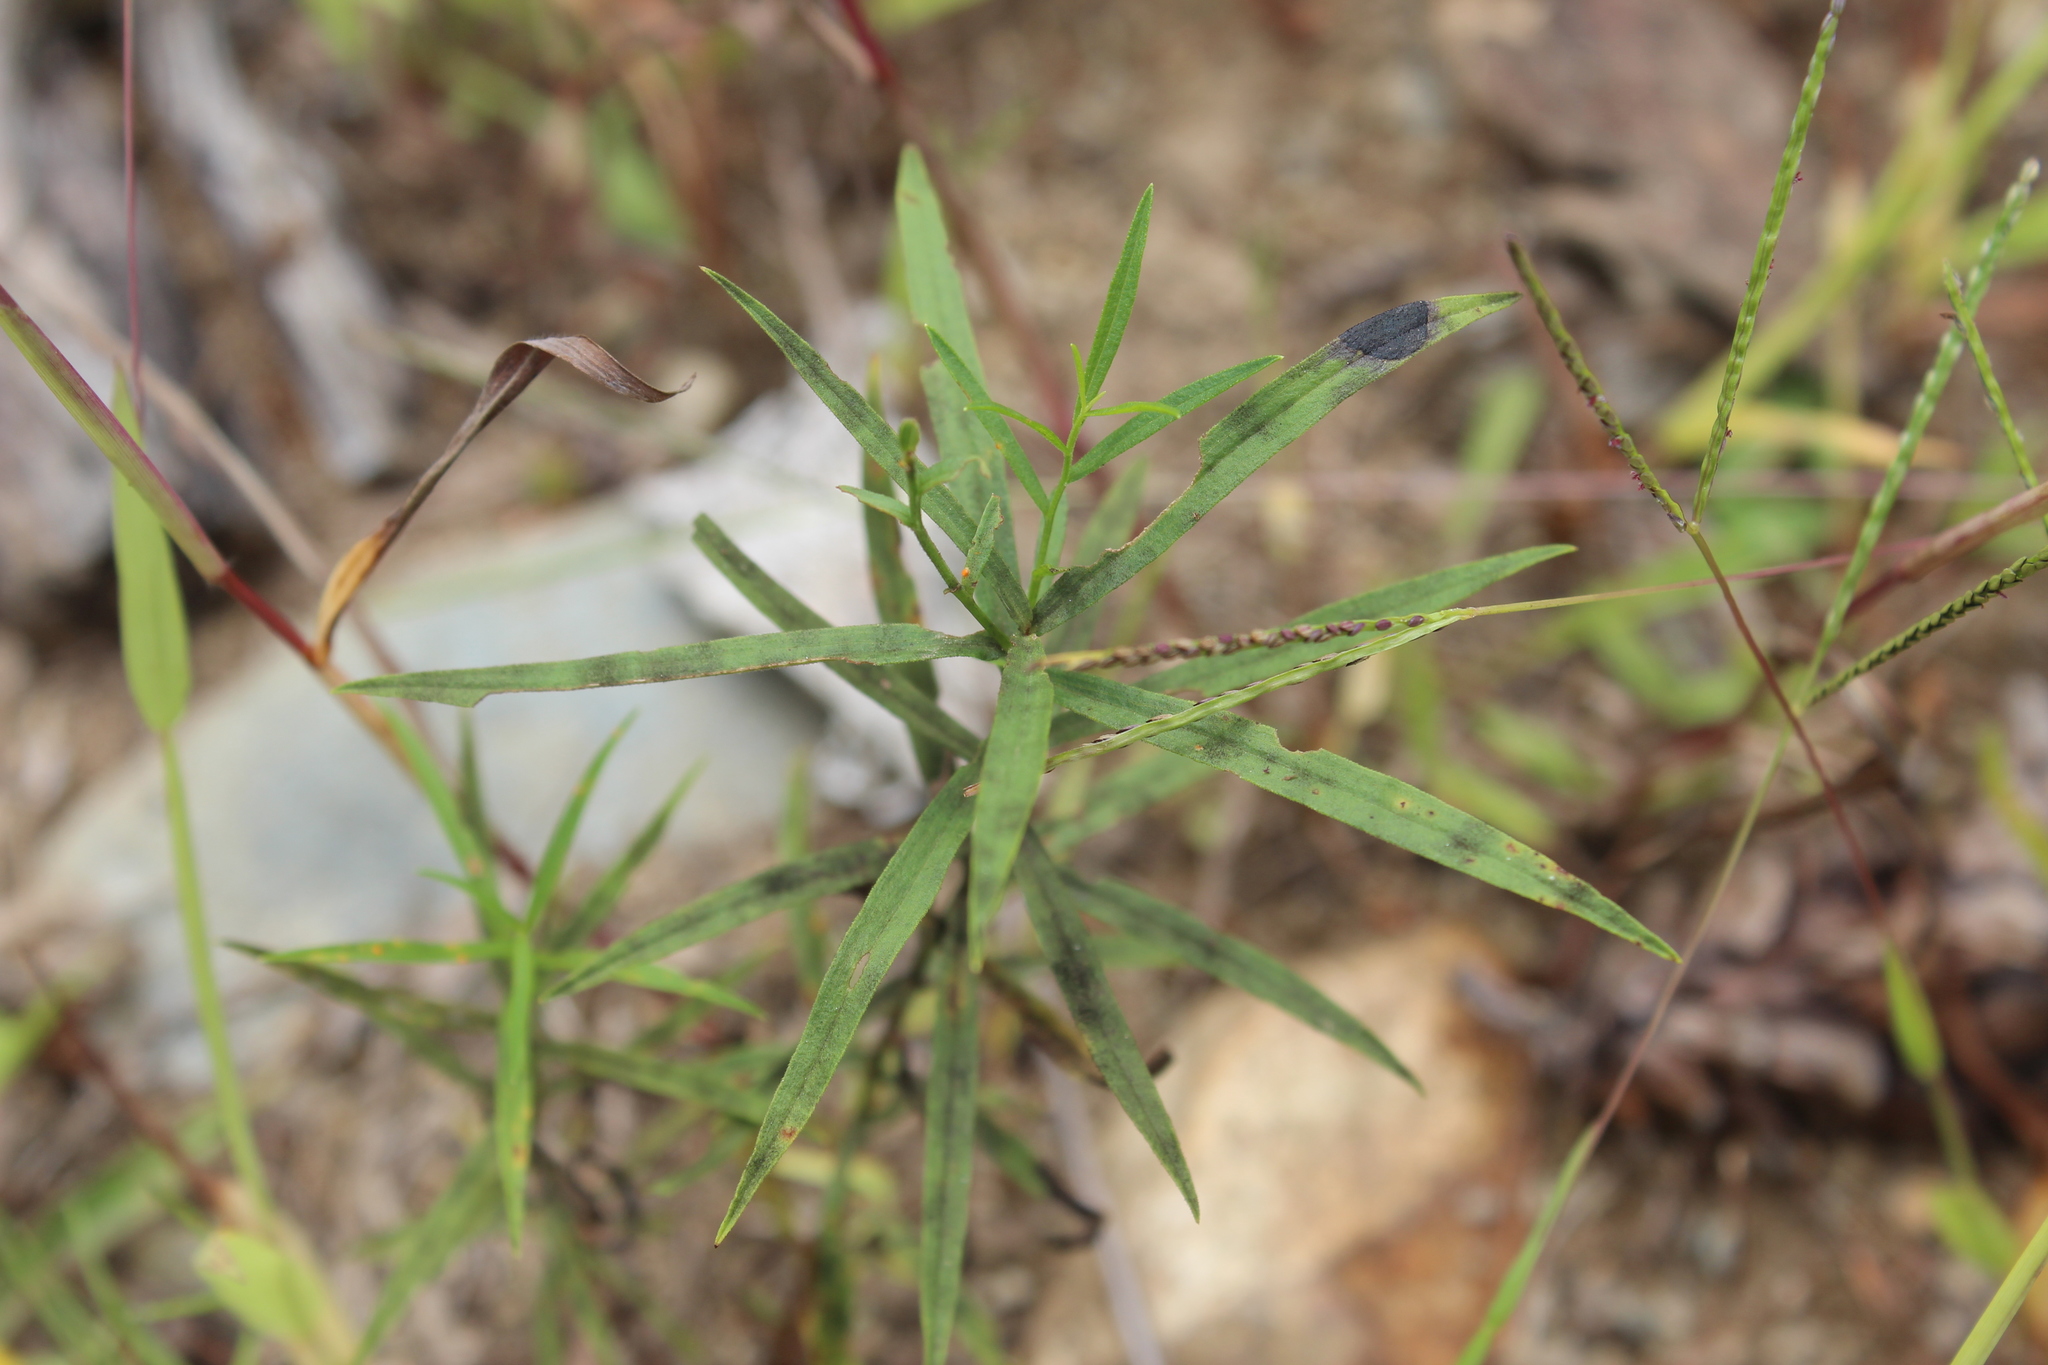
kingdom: Plantae
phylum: Tracheophyta
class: Magnoliopsida
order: Asterales
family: Asteraceae
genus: Euthamia
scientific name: Euthamia graminifolia
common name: Common goldentop
